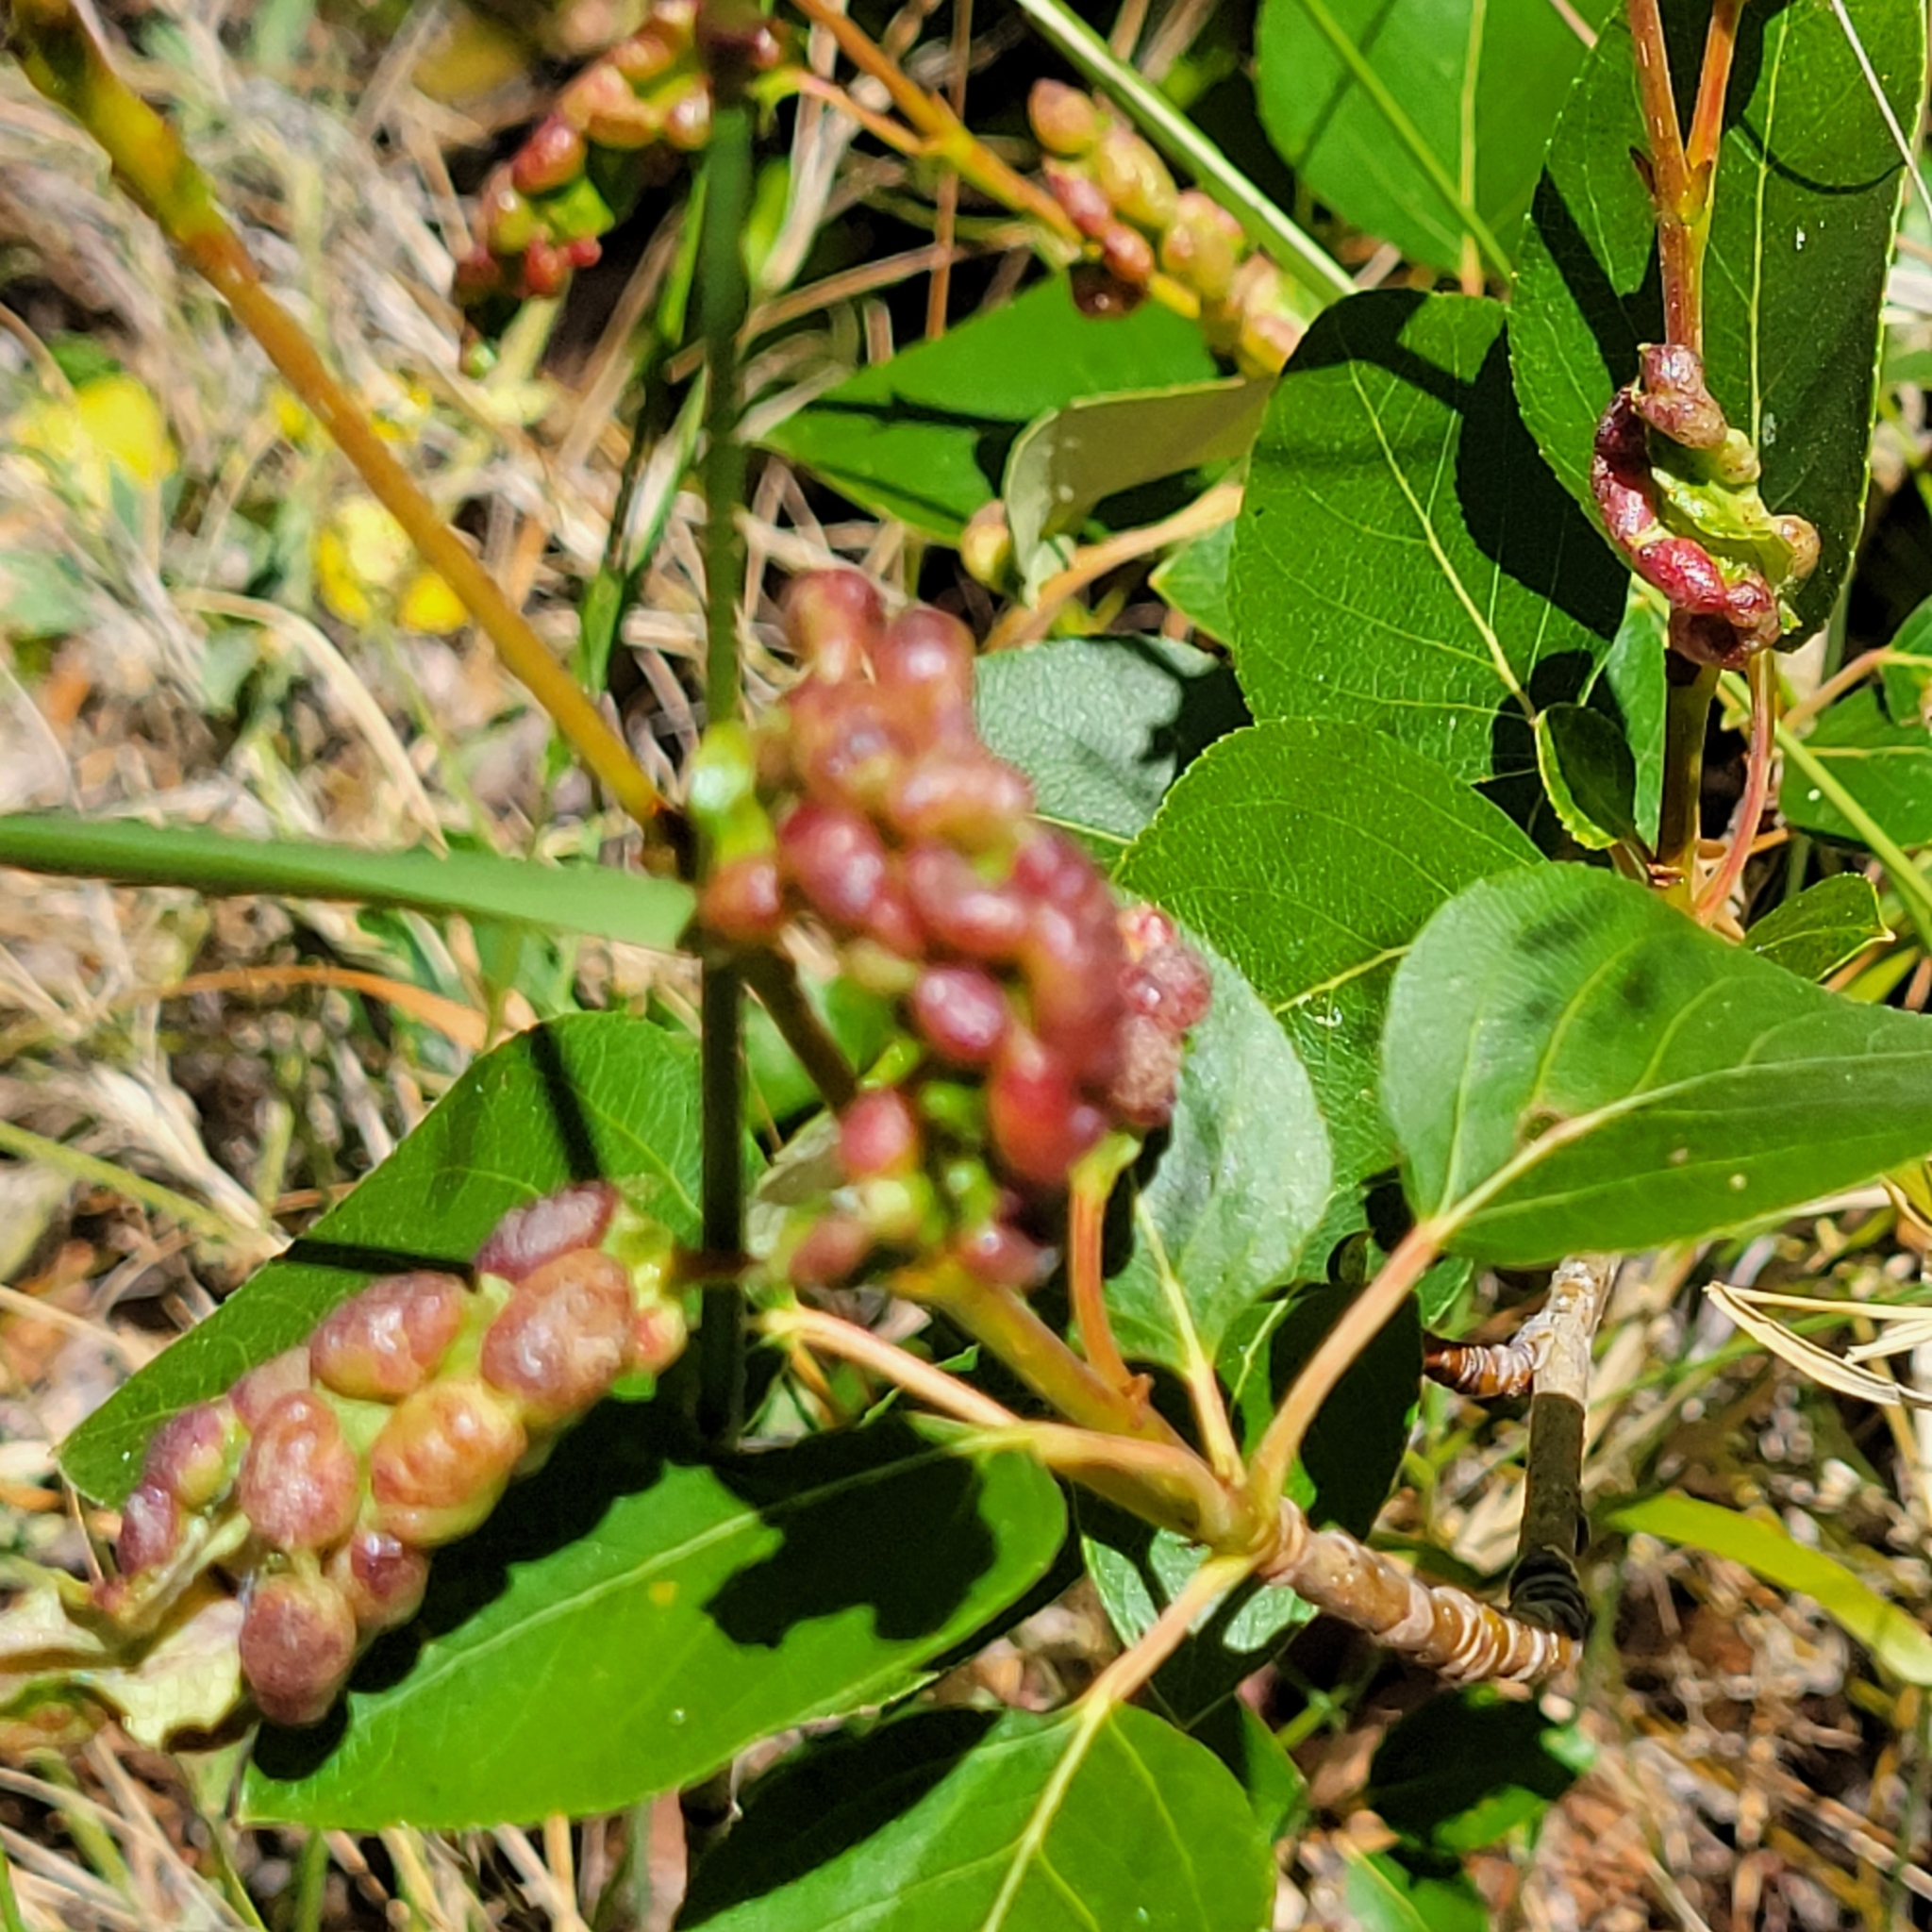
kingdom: Animalia
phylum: Arthropoda
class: Insecta
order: Hemiptera
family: Aphididae
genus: Thecabius
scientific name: Thecabius populimonilis
